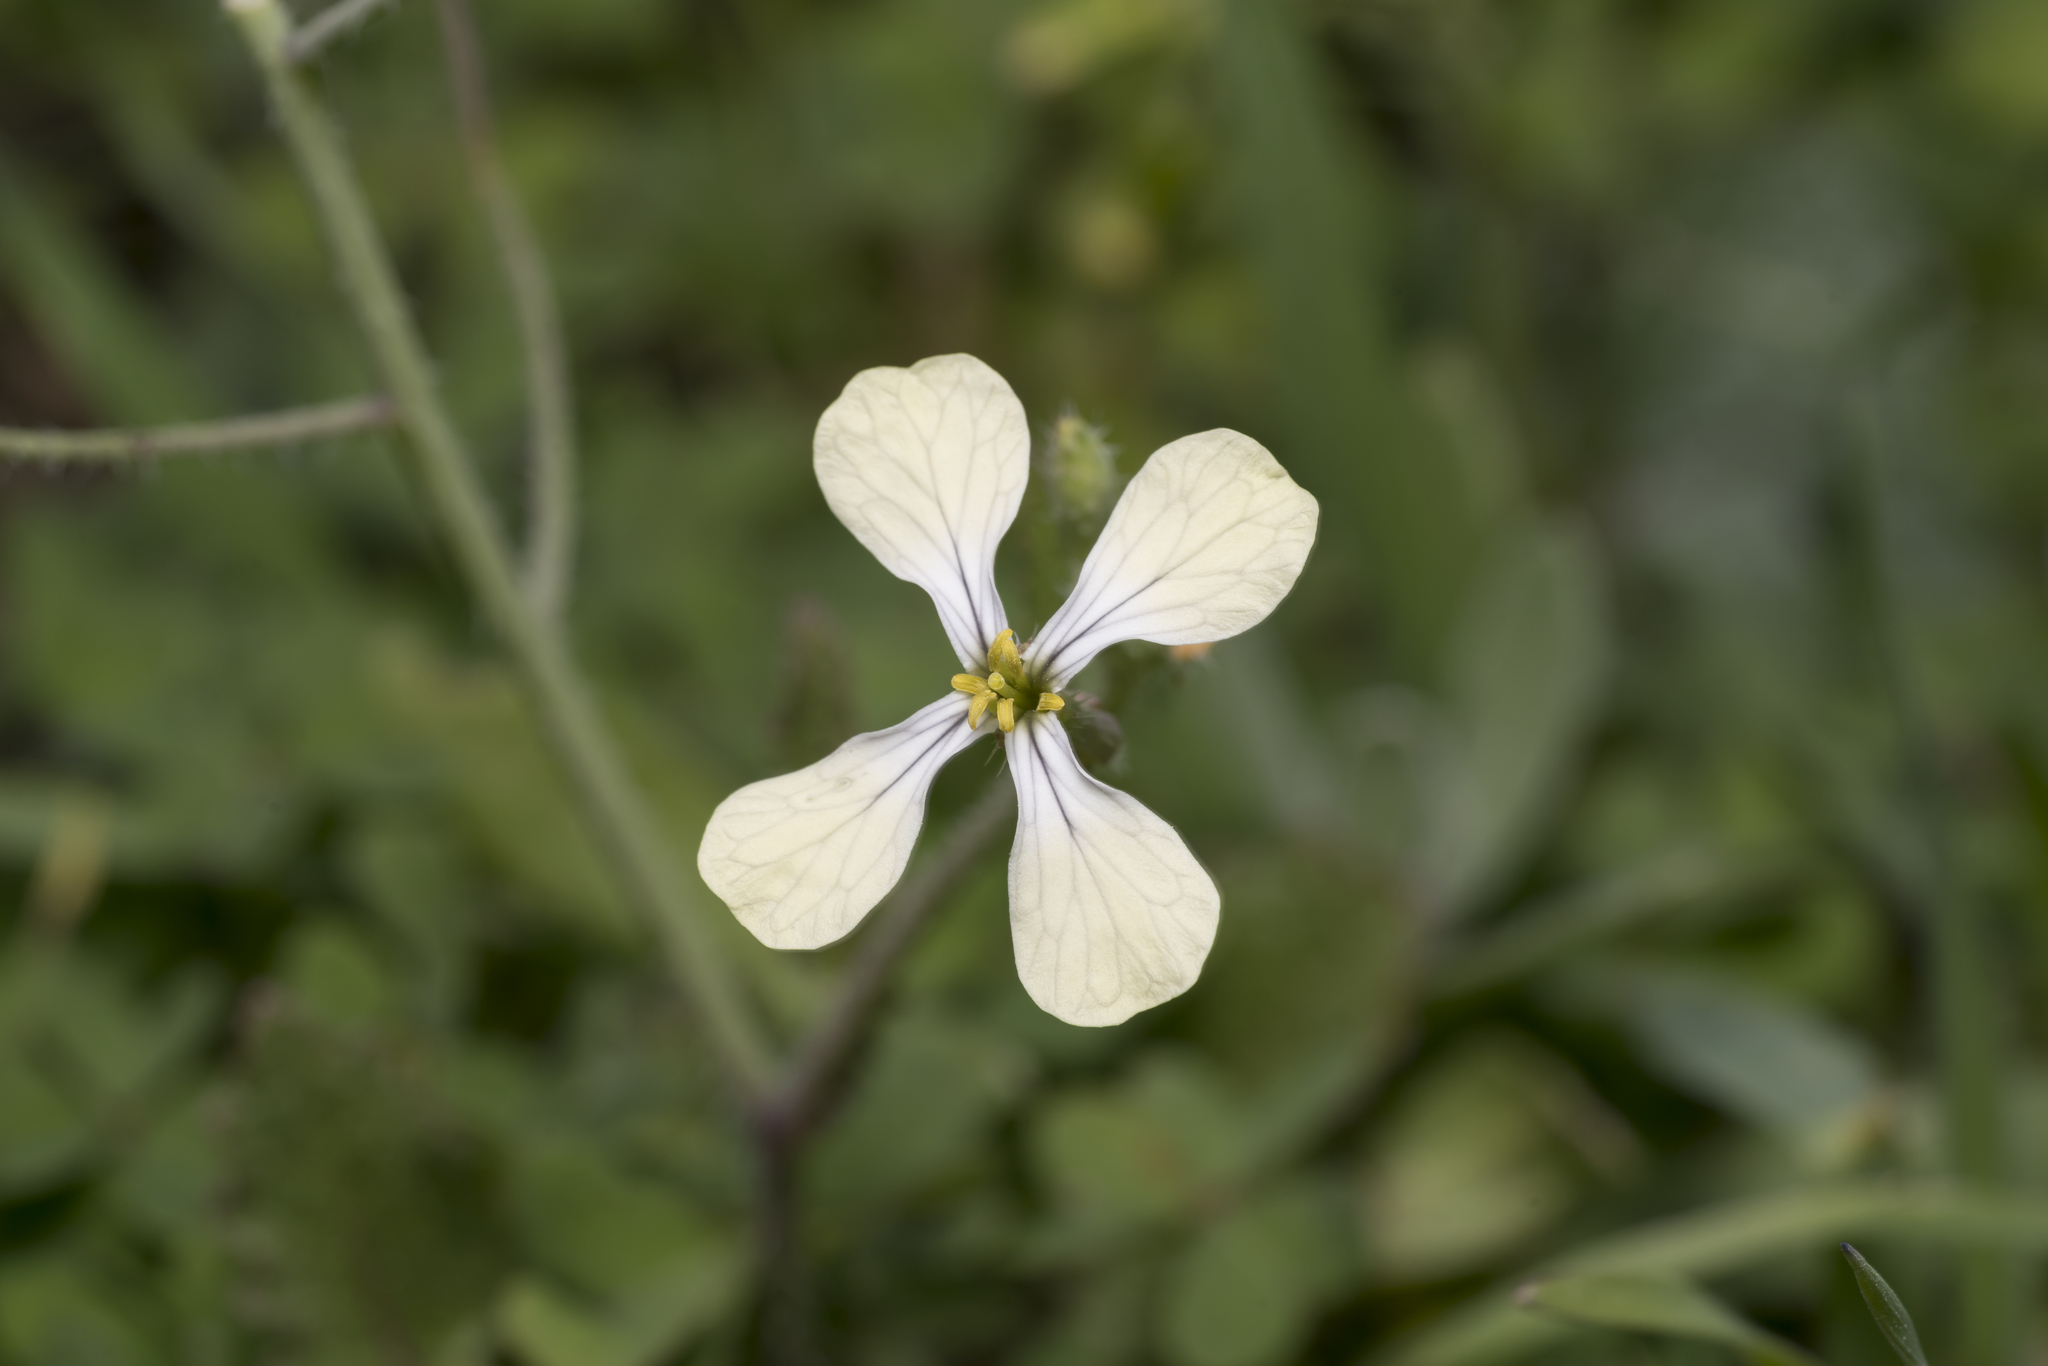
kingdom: Plantae
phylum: Tracheophyta
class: Magnoliopsida
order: Brassicales
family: Brassicaceae
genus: Raphanus
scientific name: Raphanus raphanistrum
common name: Wild radish
